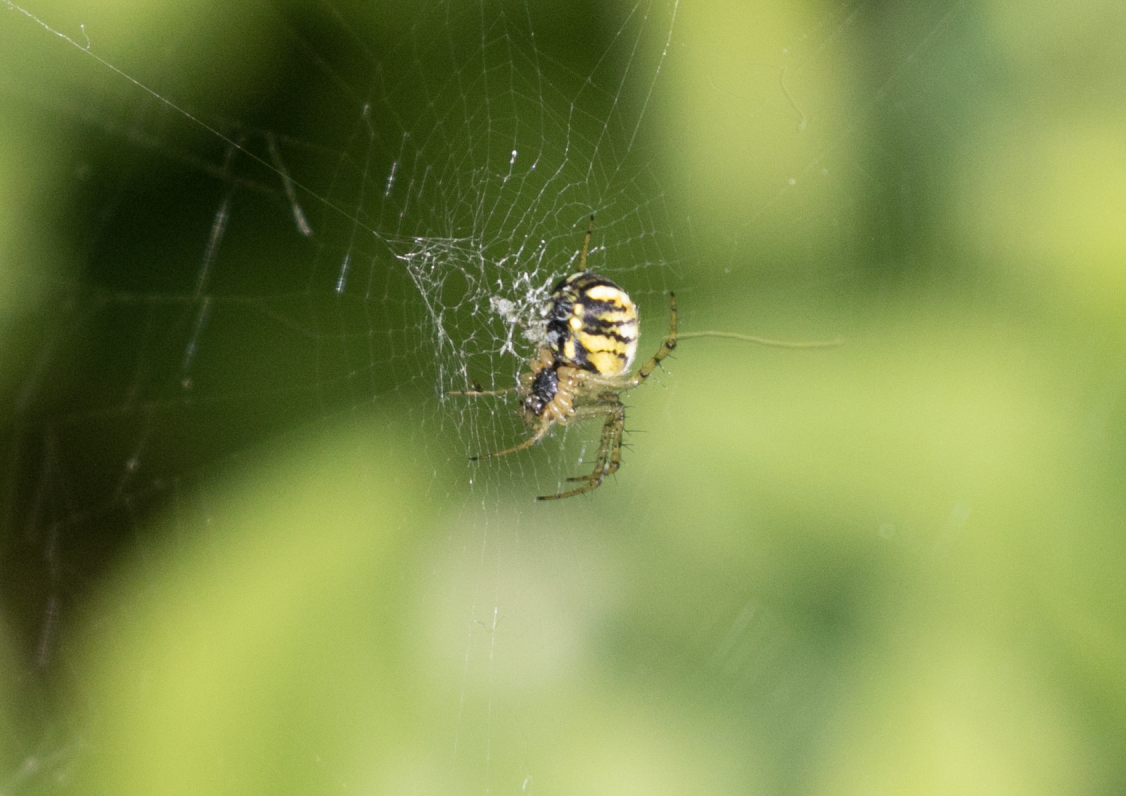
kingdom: Animalia
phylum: Arthropoda
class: Arachnida
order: Araneae
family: Araneidae
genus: Mangora
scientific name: Mangora acalypha
